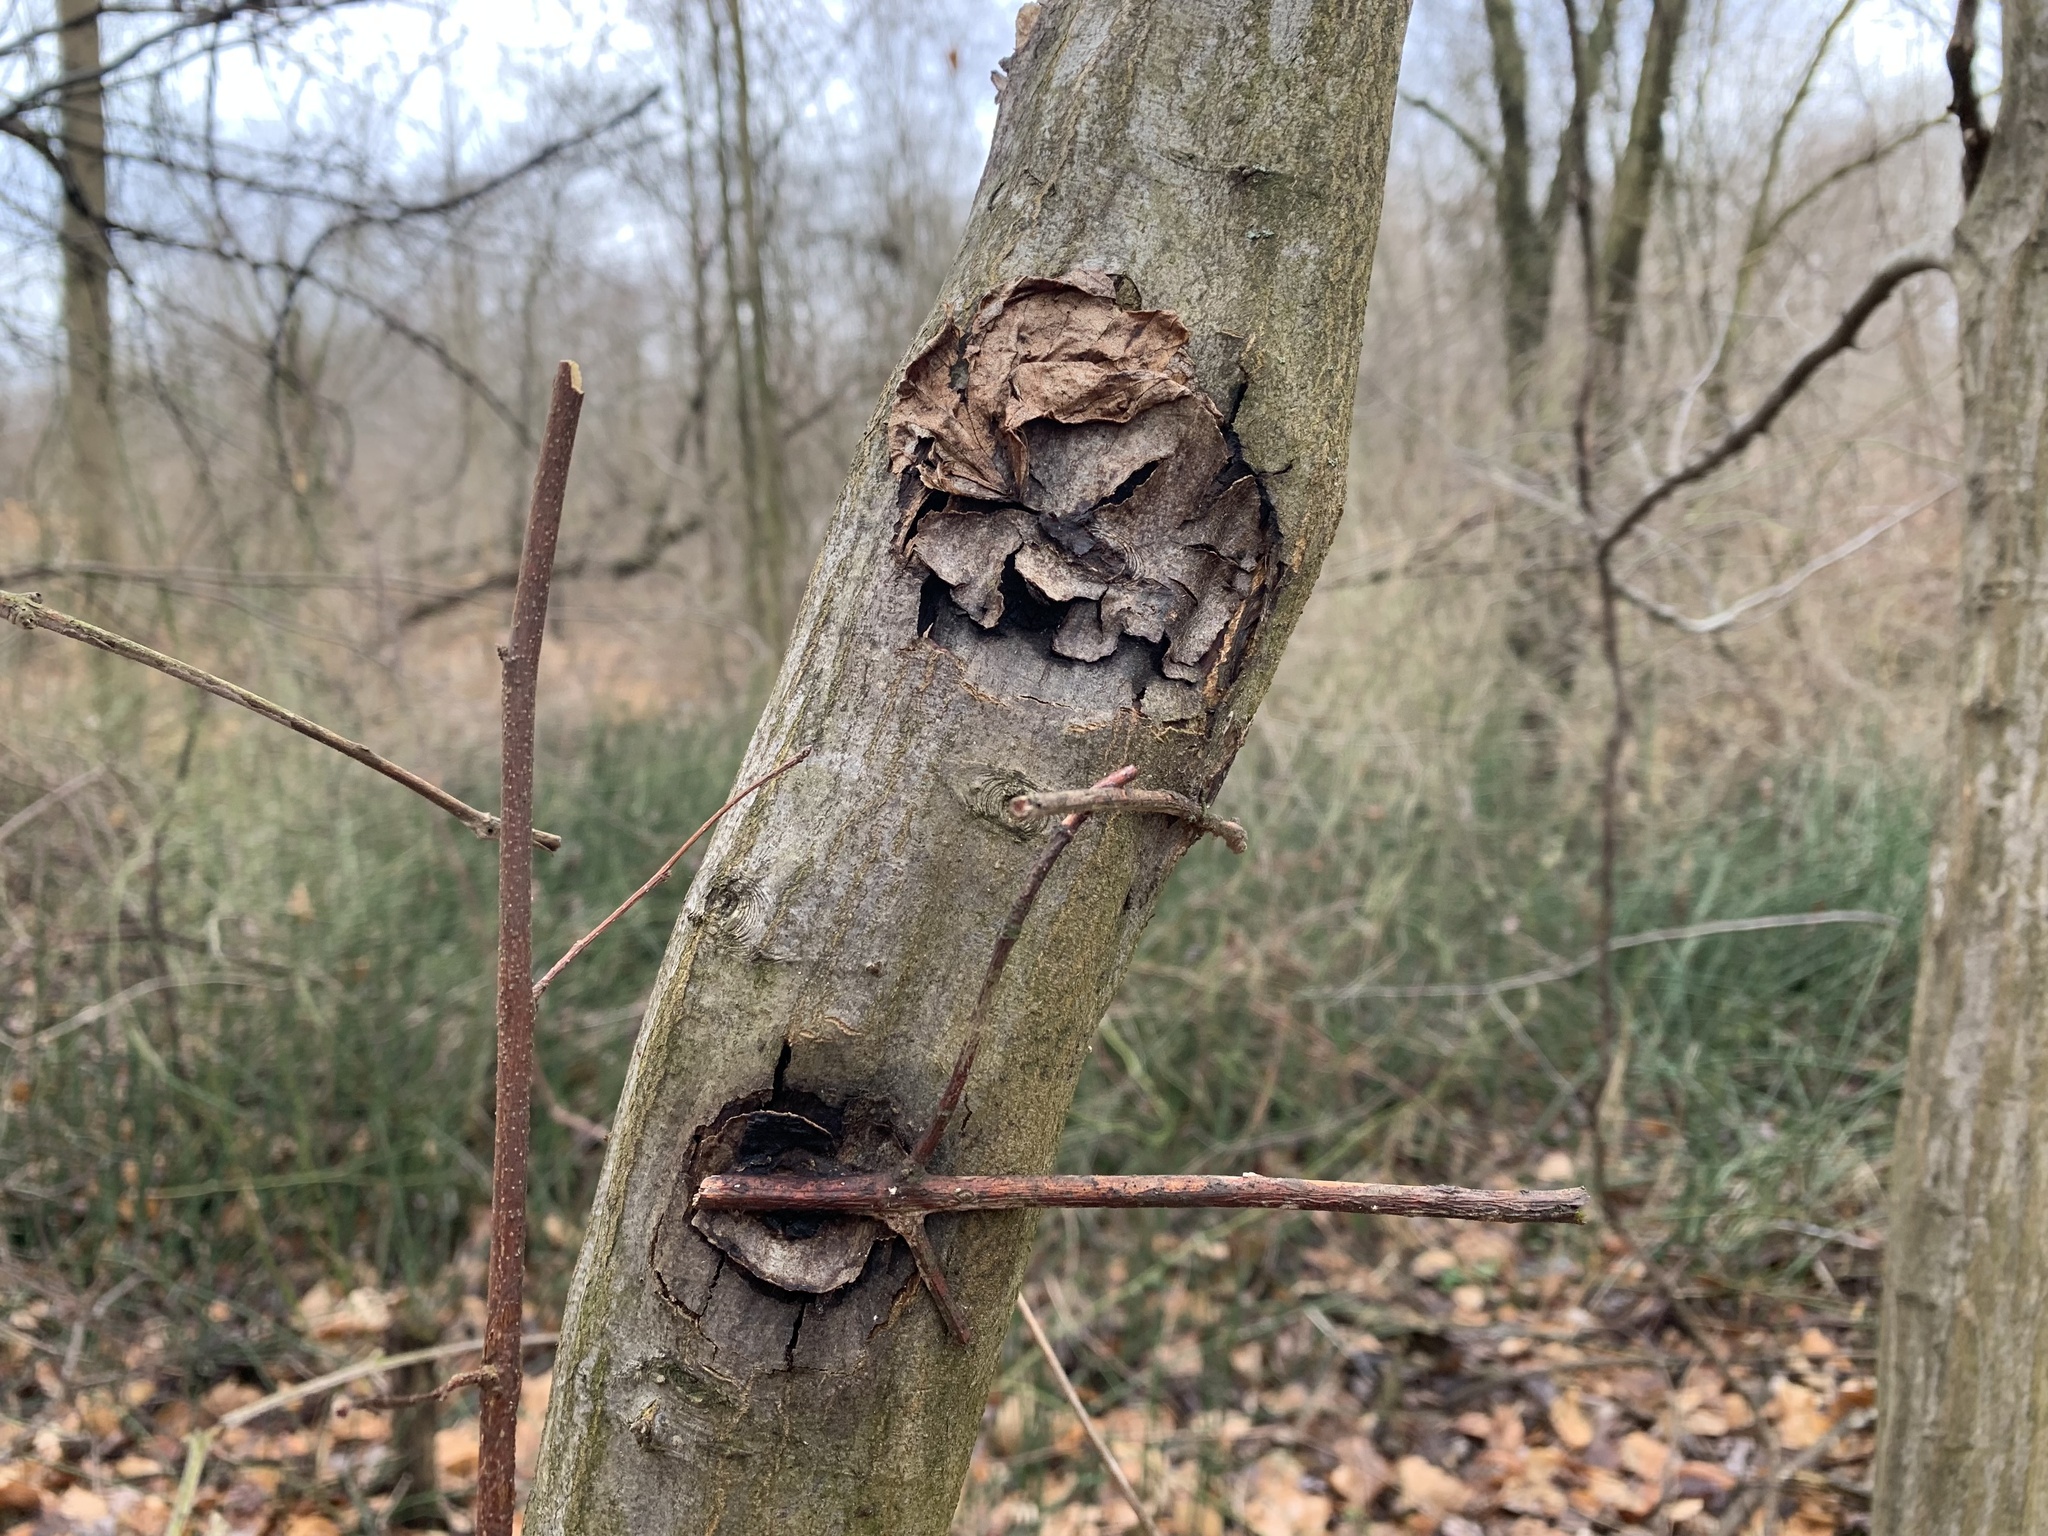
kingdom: Fungi
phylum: Basidiomycota
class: Agaricomycetes
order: Hymenochaetales
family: Hymenochaetaceae
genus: Hydnoporia
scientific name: Hydnoporia diffissa
